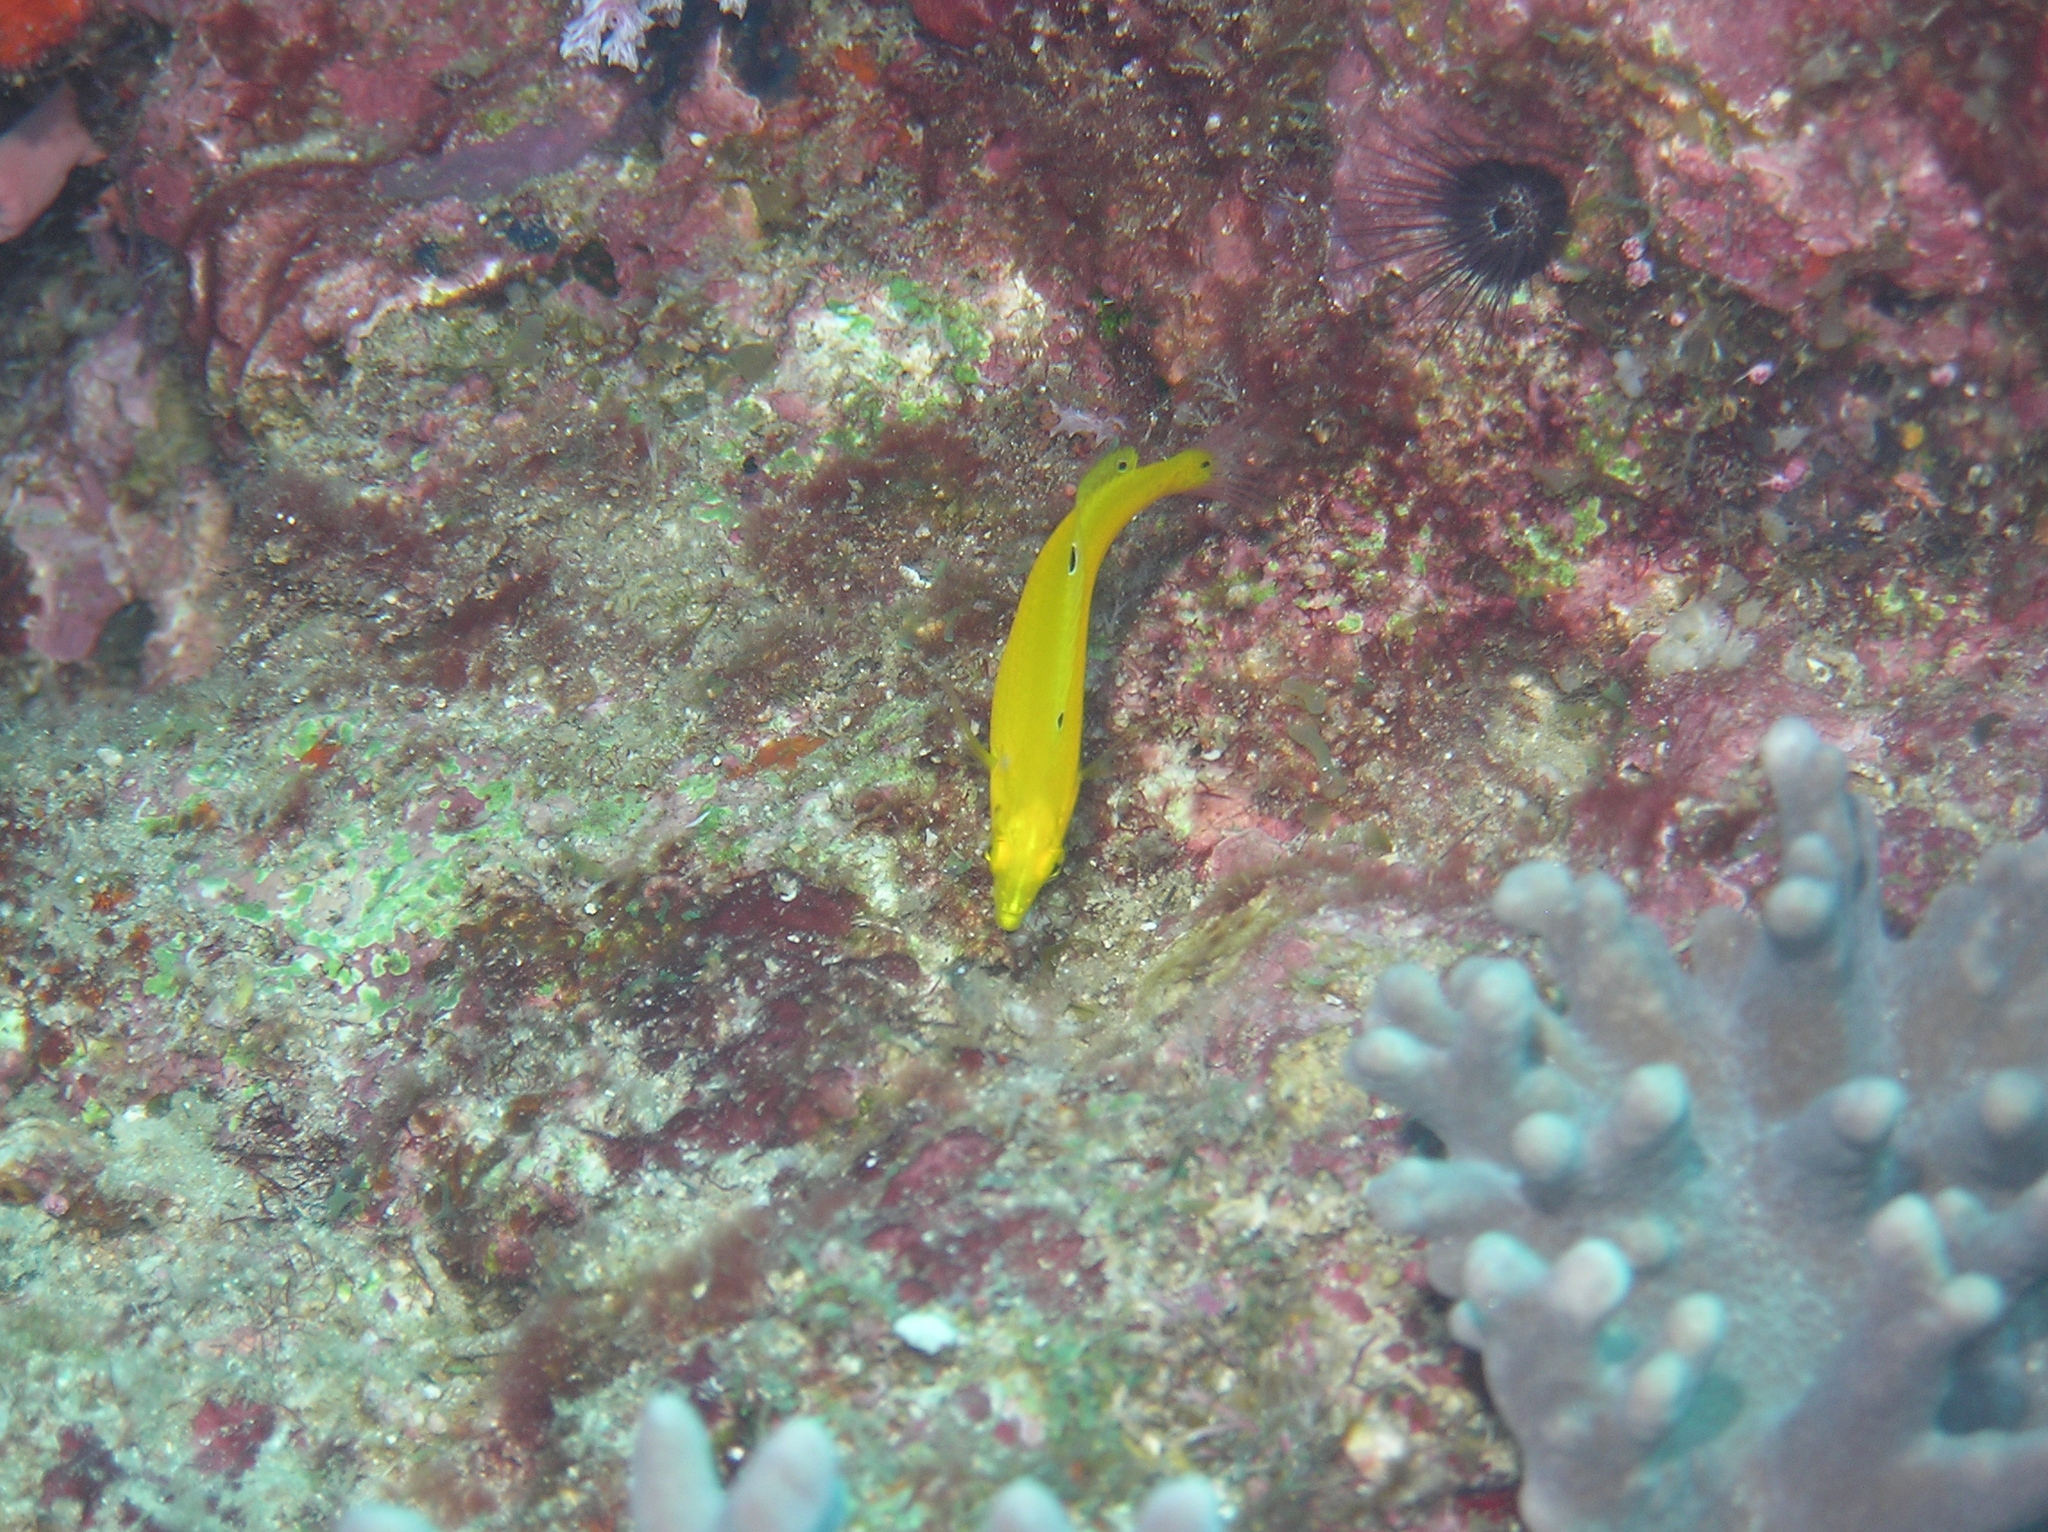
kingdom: Animalia
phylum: Chordata
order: Perciformes
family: Labridae
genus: Halichoeres
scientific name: Halichoeres chrysus
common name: Canary wrasse
